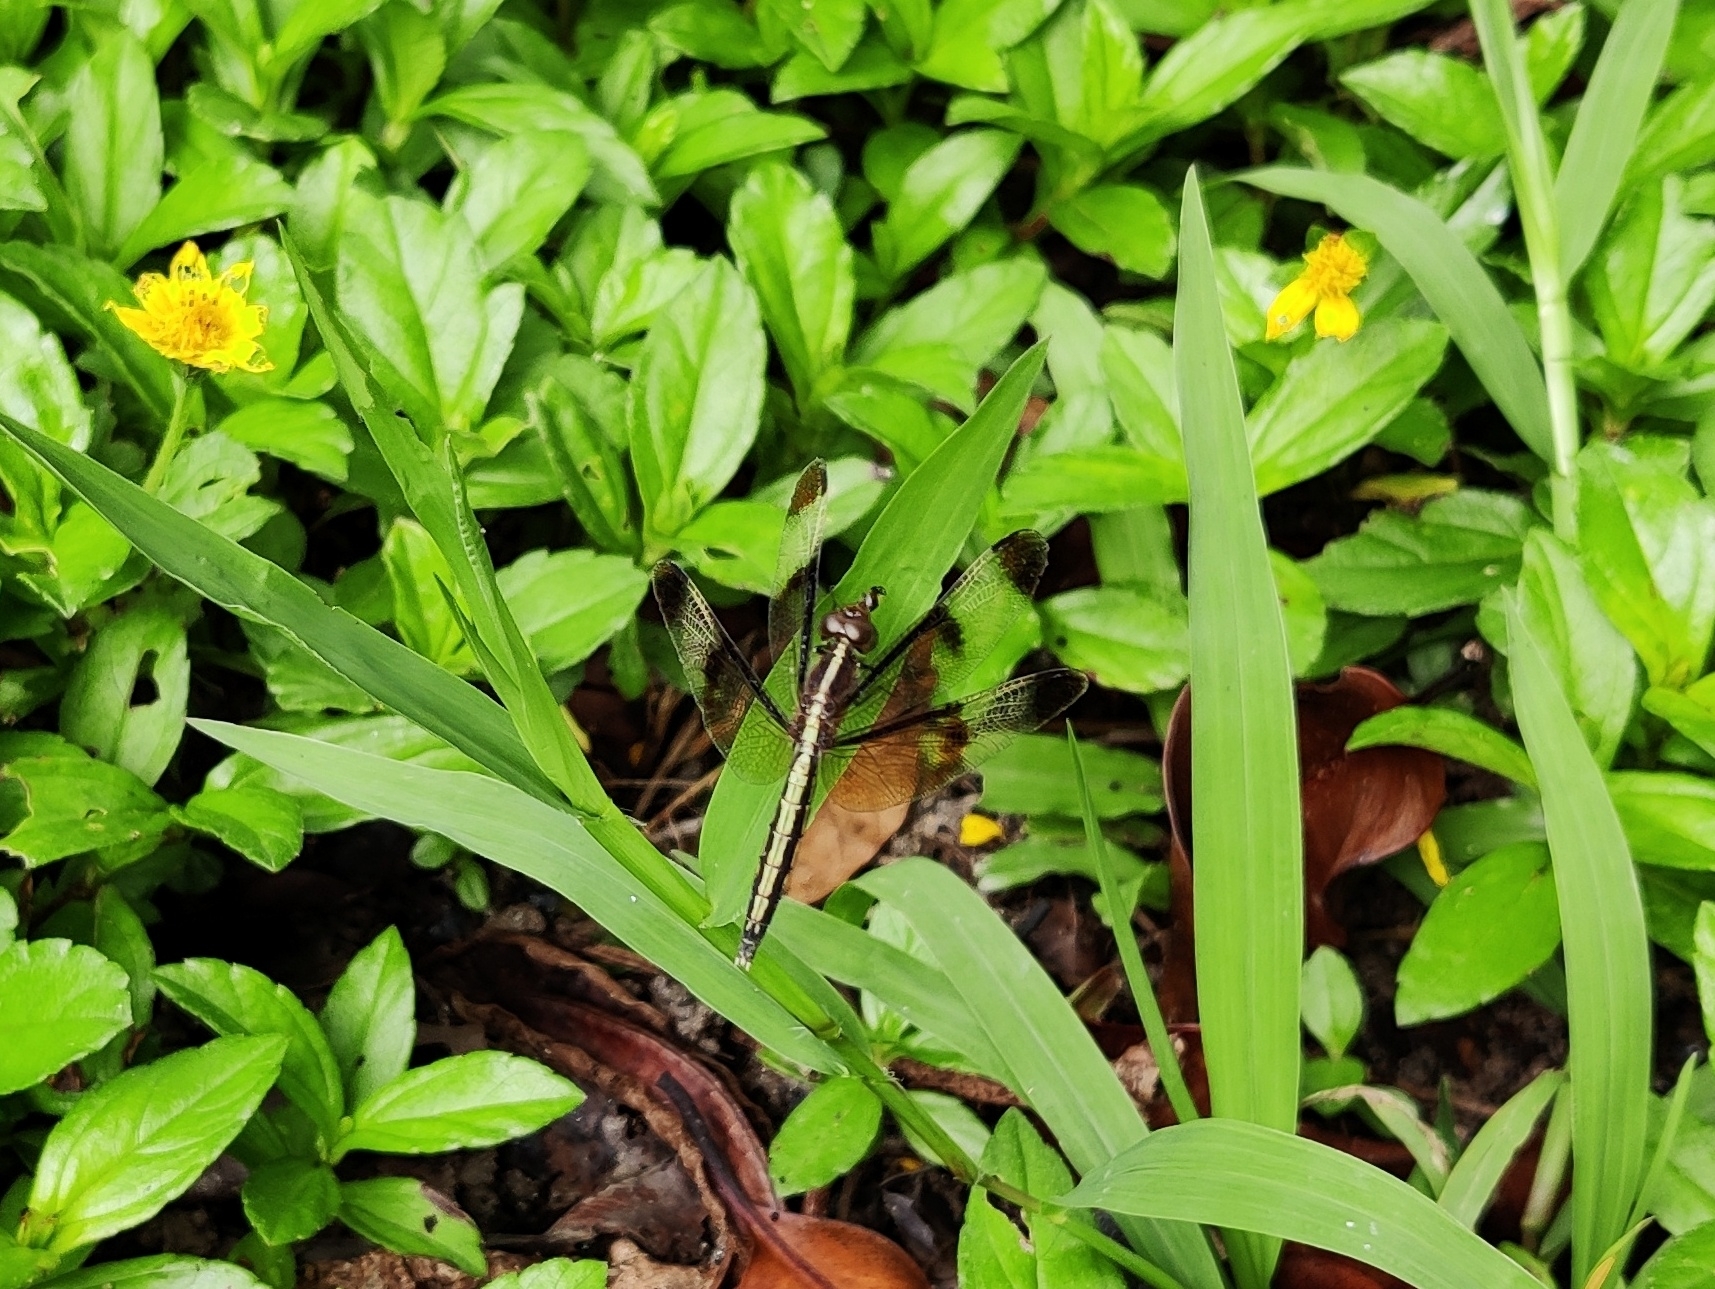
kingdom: Animalia
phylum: Arthropoda
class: Insecta
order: Odonata
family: Libellulidae
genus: Neurothemis
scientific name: Neurothemis tullia
